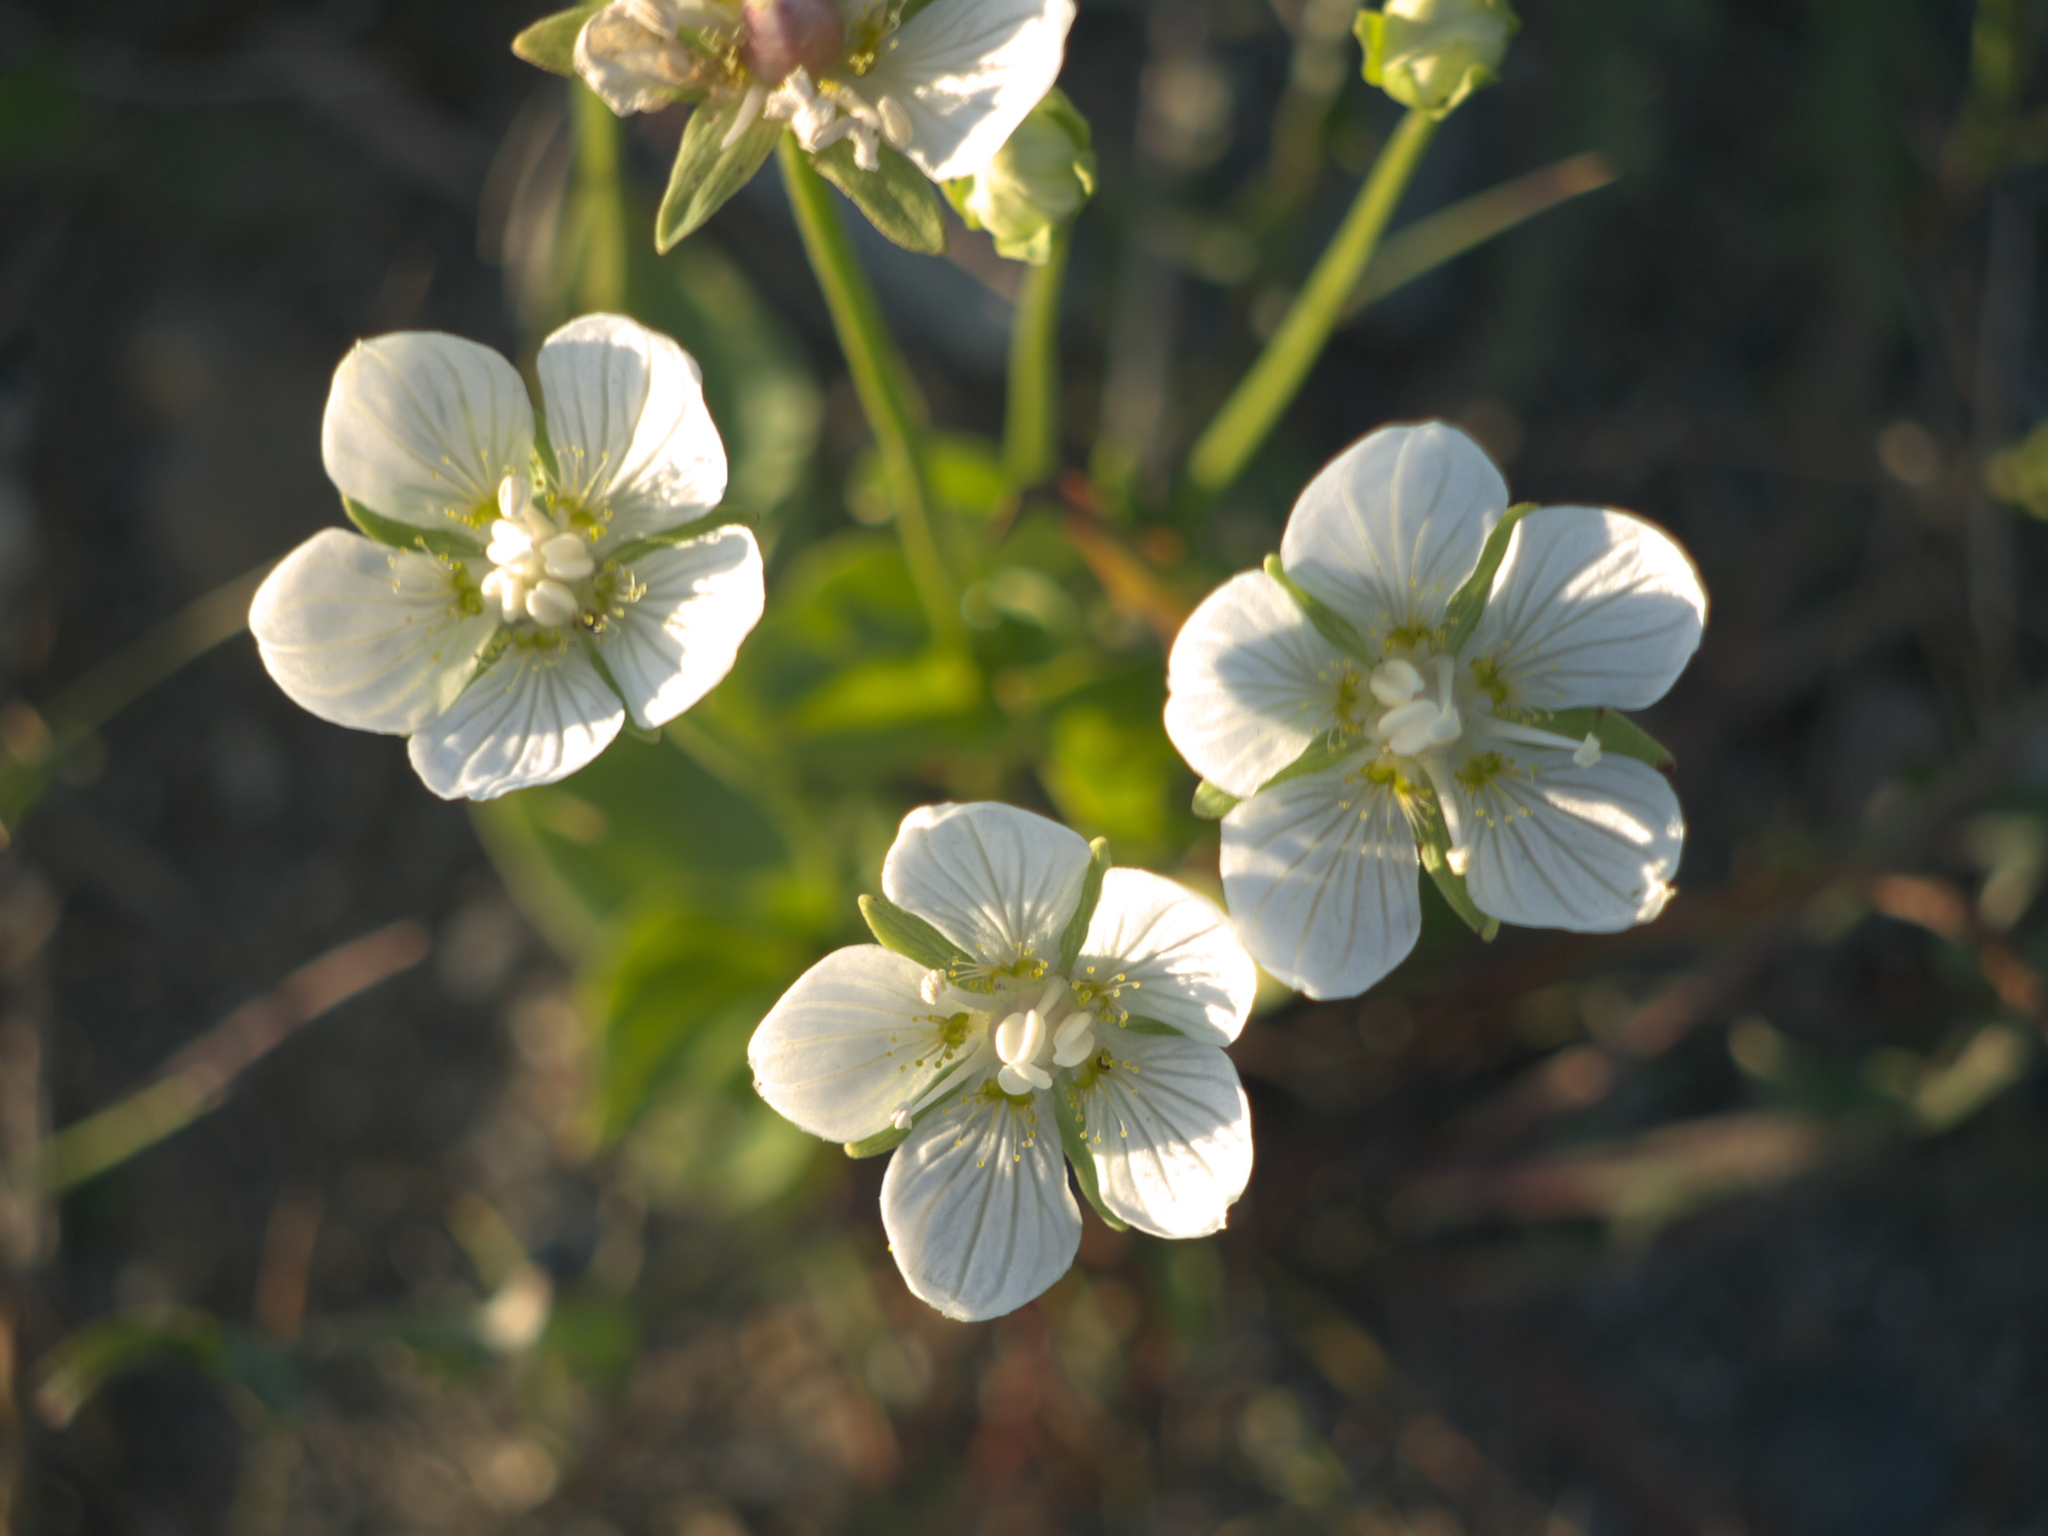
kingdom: Plantae
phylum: Tracheophyta
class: Magnoliopsida
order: Celastrales
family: Parnassiaceae
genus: Parnassia
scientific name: Parnassia palustris
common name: Grass-of-parnassus
